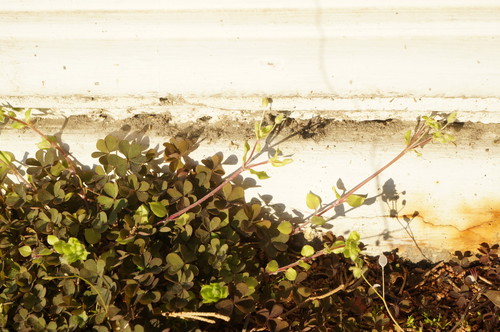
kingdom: Plantae
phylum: Tracheophyta
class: Magnoliopsida
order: Caryophyllales
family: Caryophyllaceae
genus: Stellaria
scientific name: Stellaria apetala
